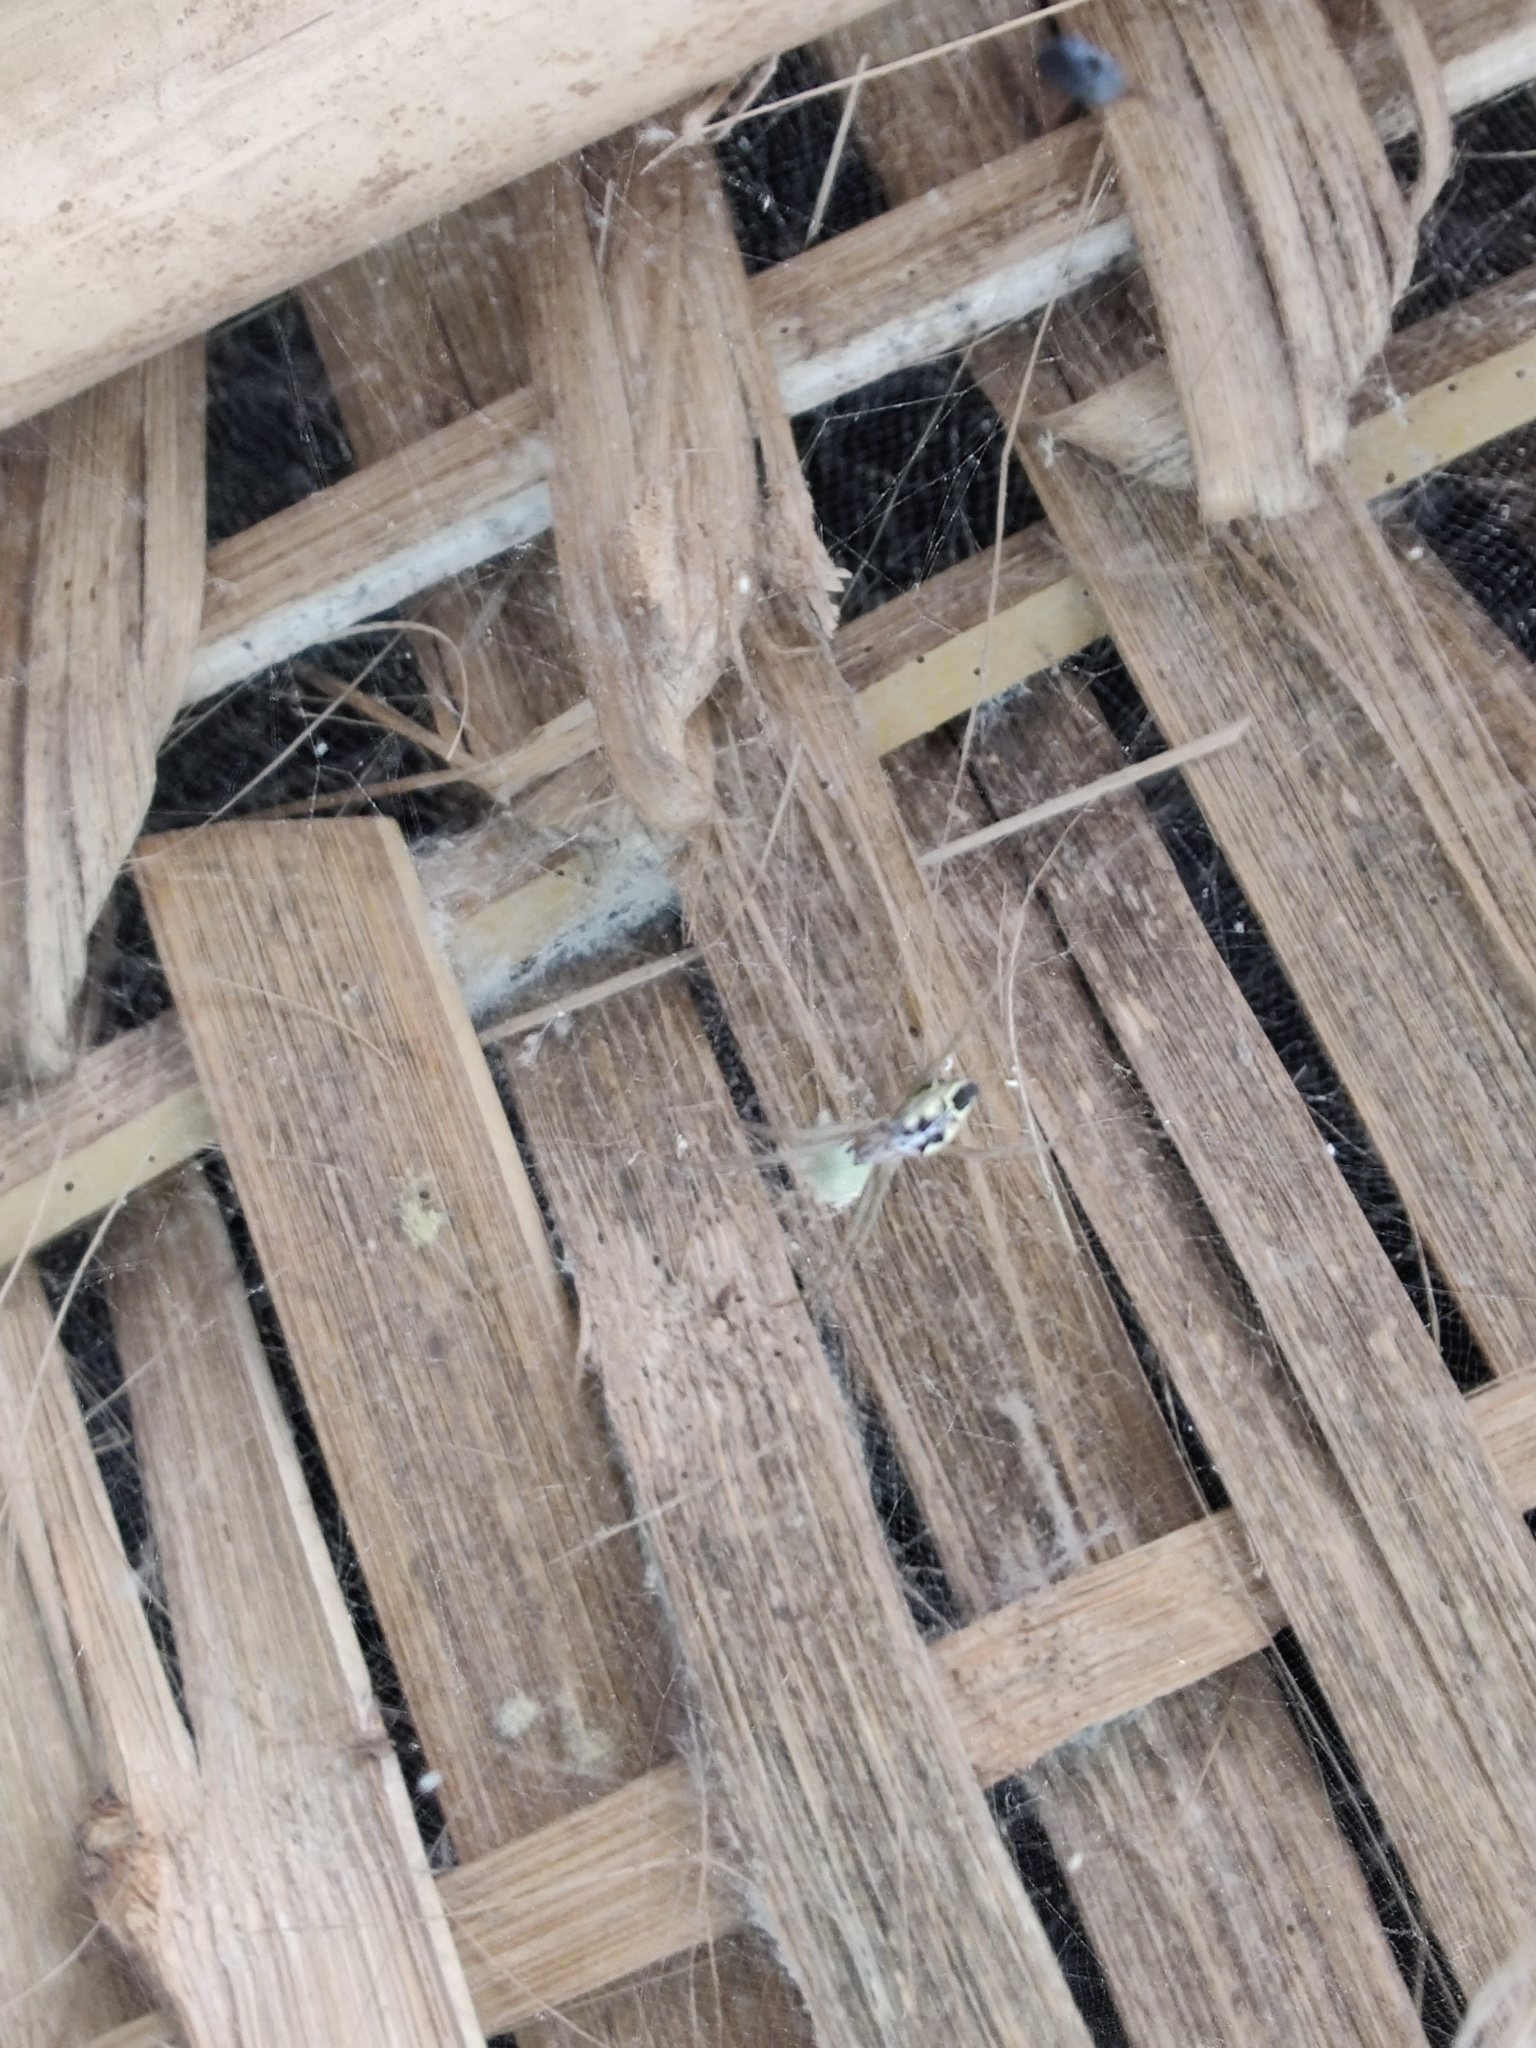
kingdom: Animalia
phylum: Arthropoda
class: Arachnida
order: Araneae
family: Araneidae
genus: Cyrtophora
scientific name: Cyrtophora cicatrosa
